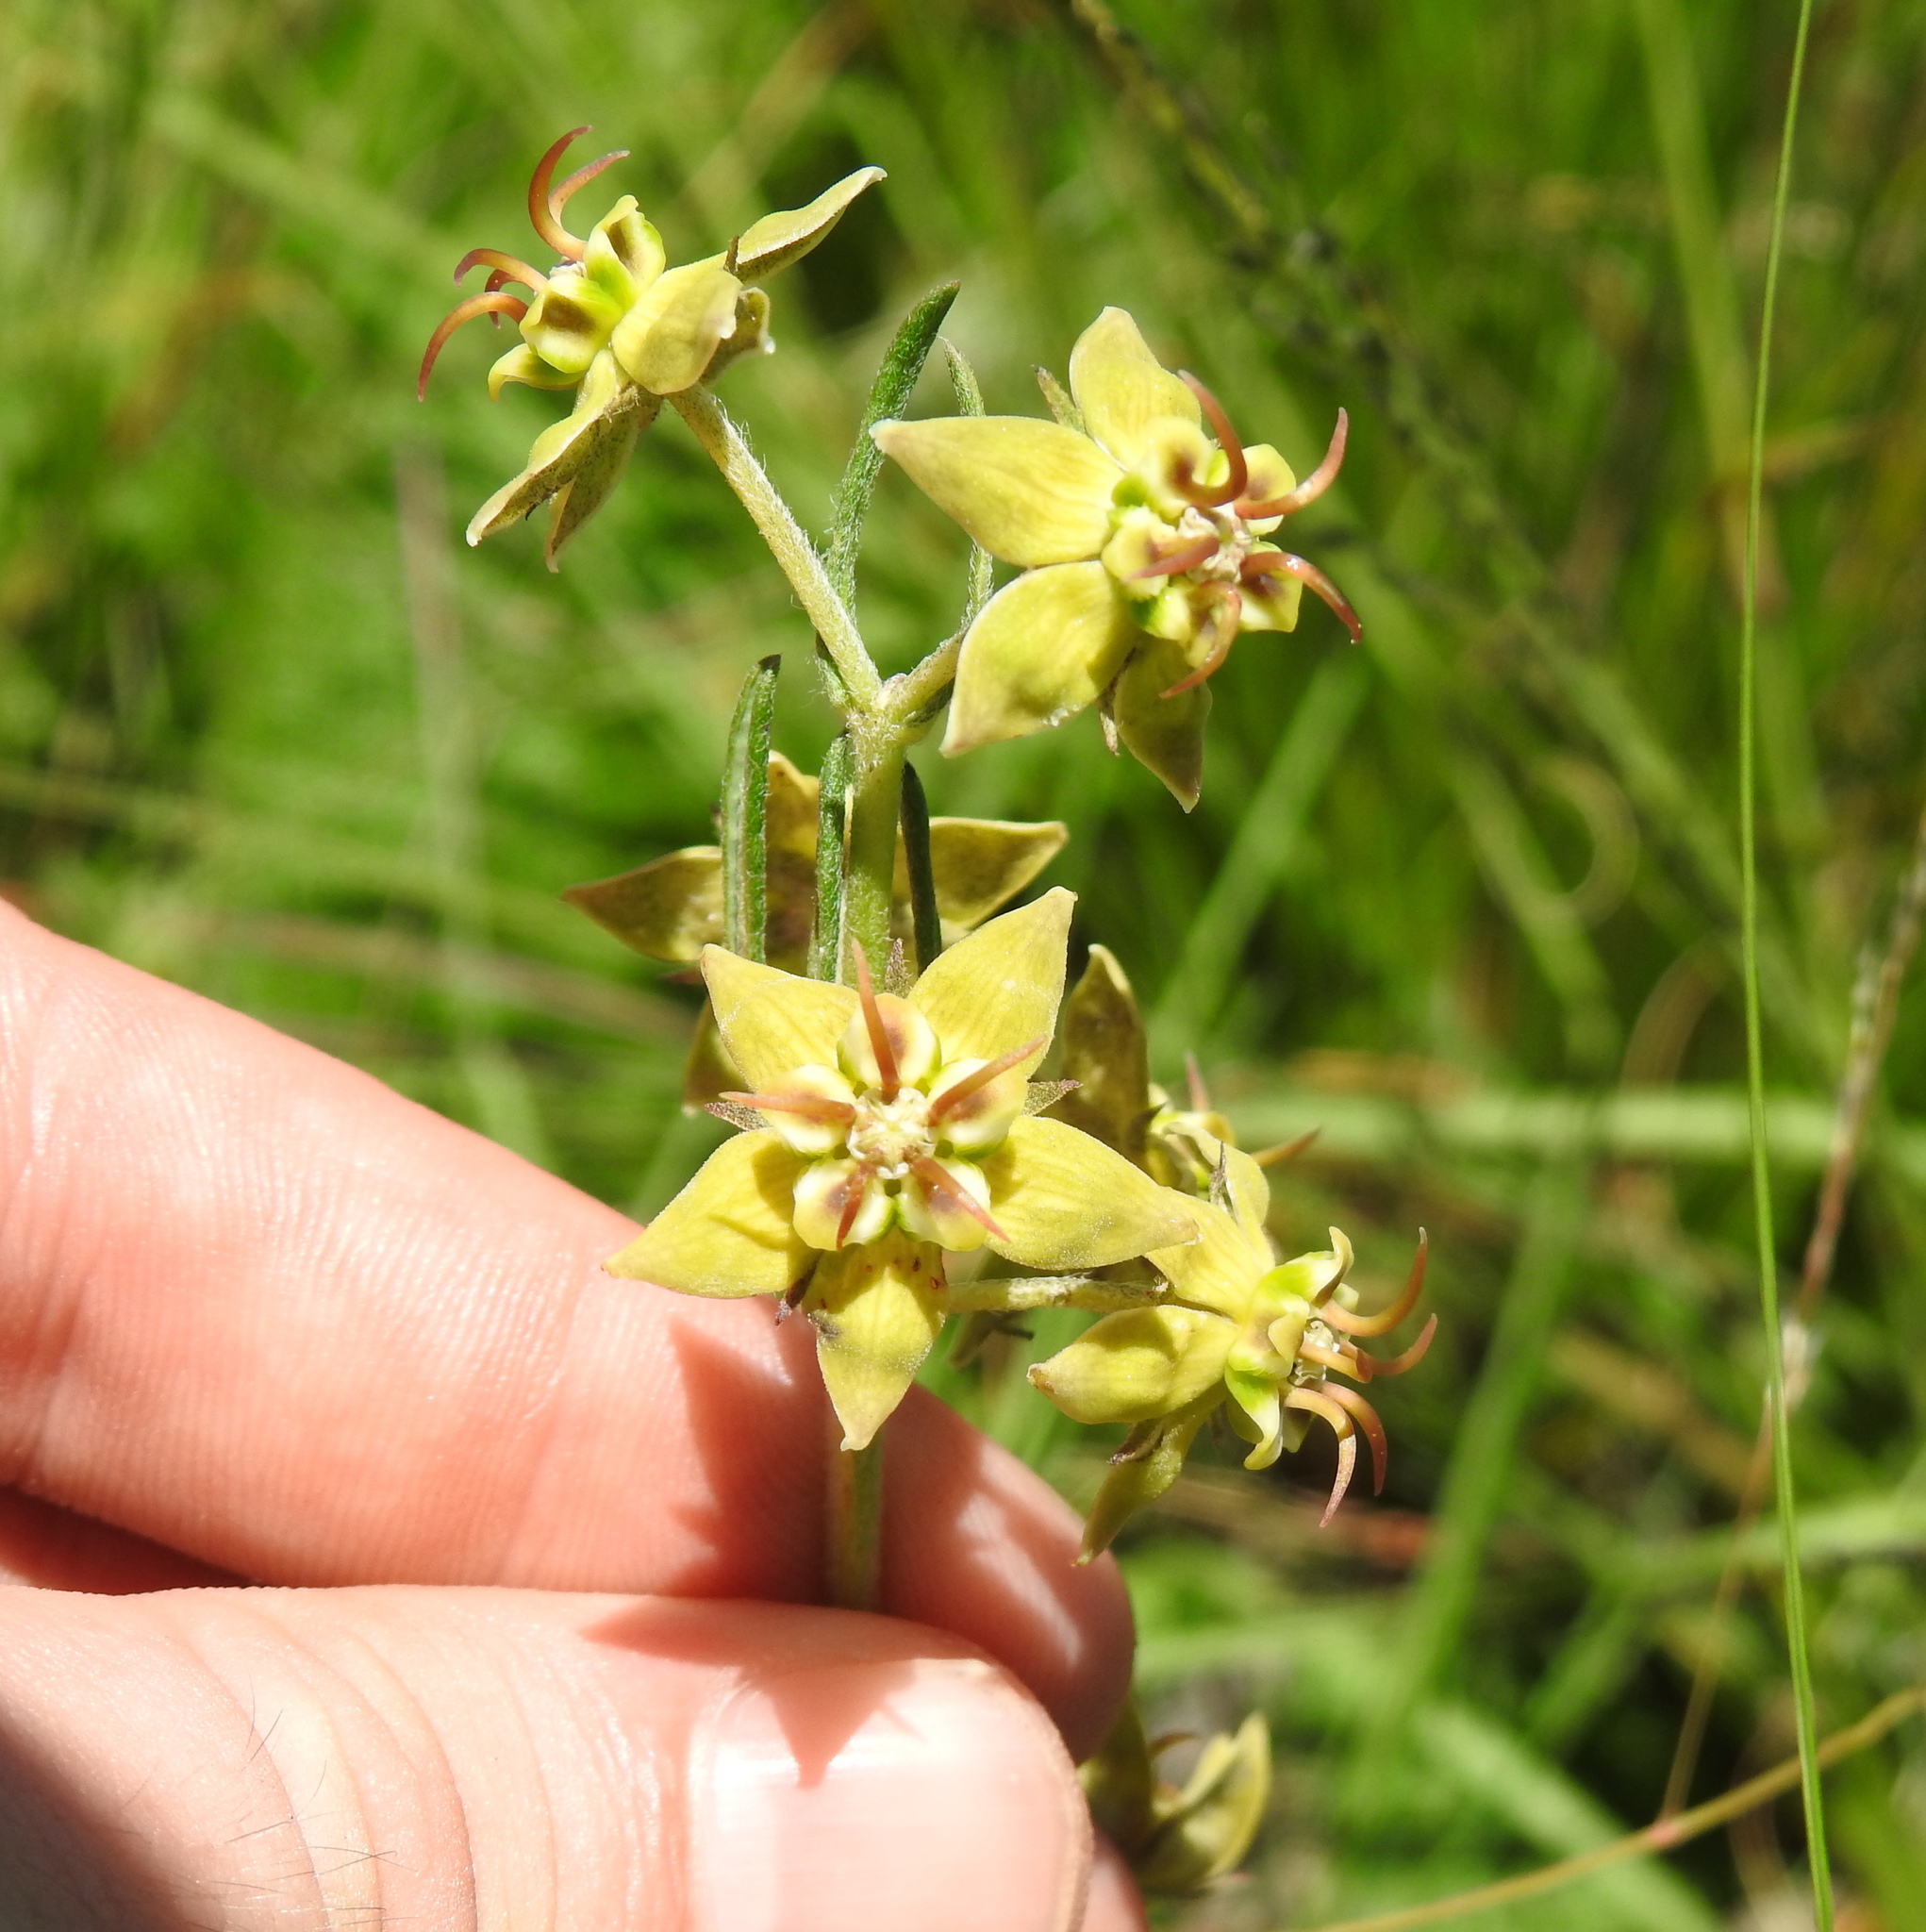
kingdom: Plantae
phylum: Tracheophyta
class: Magnoliopsida
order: Gentianales
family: Apocynaceae
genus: Miraglossum
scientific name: Miraglossum pulchellum
